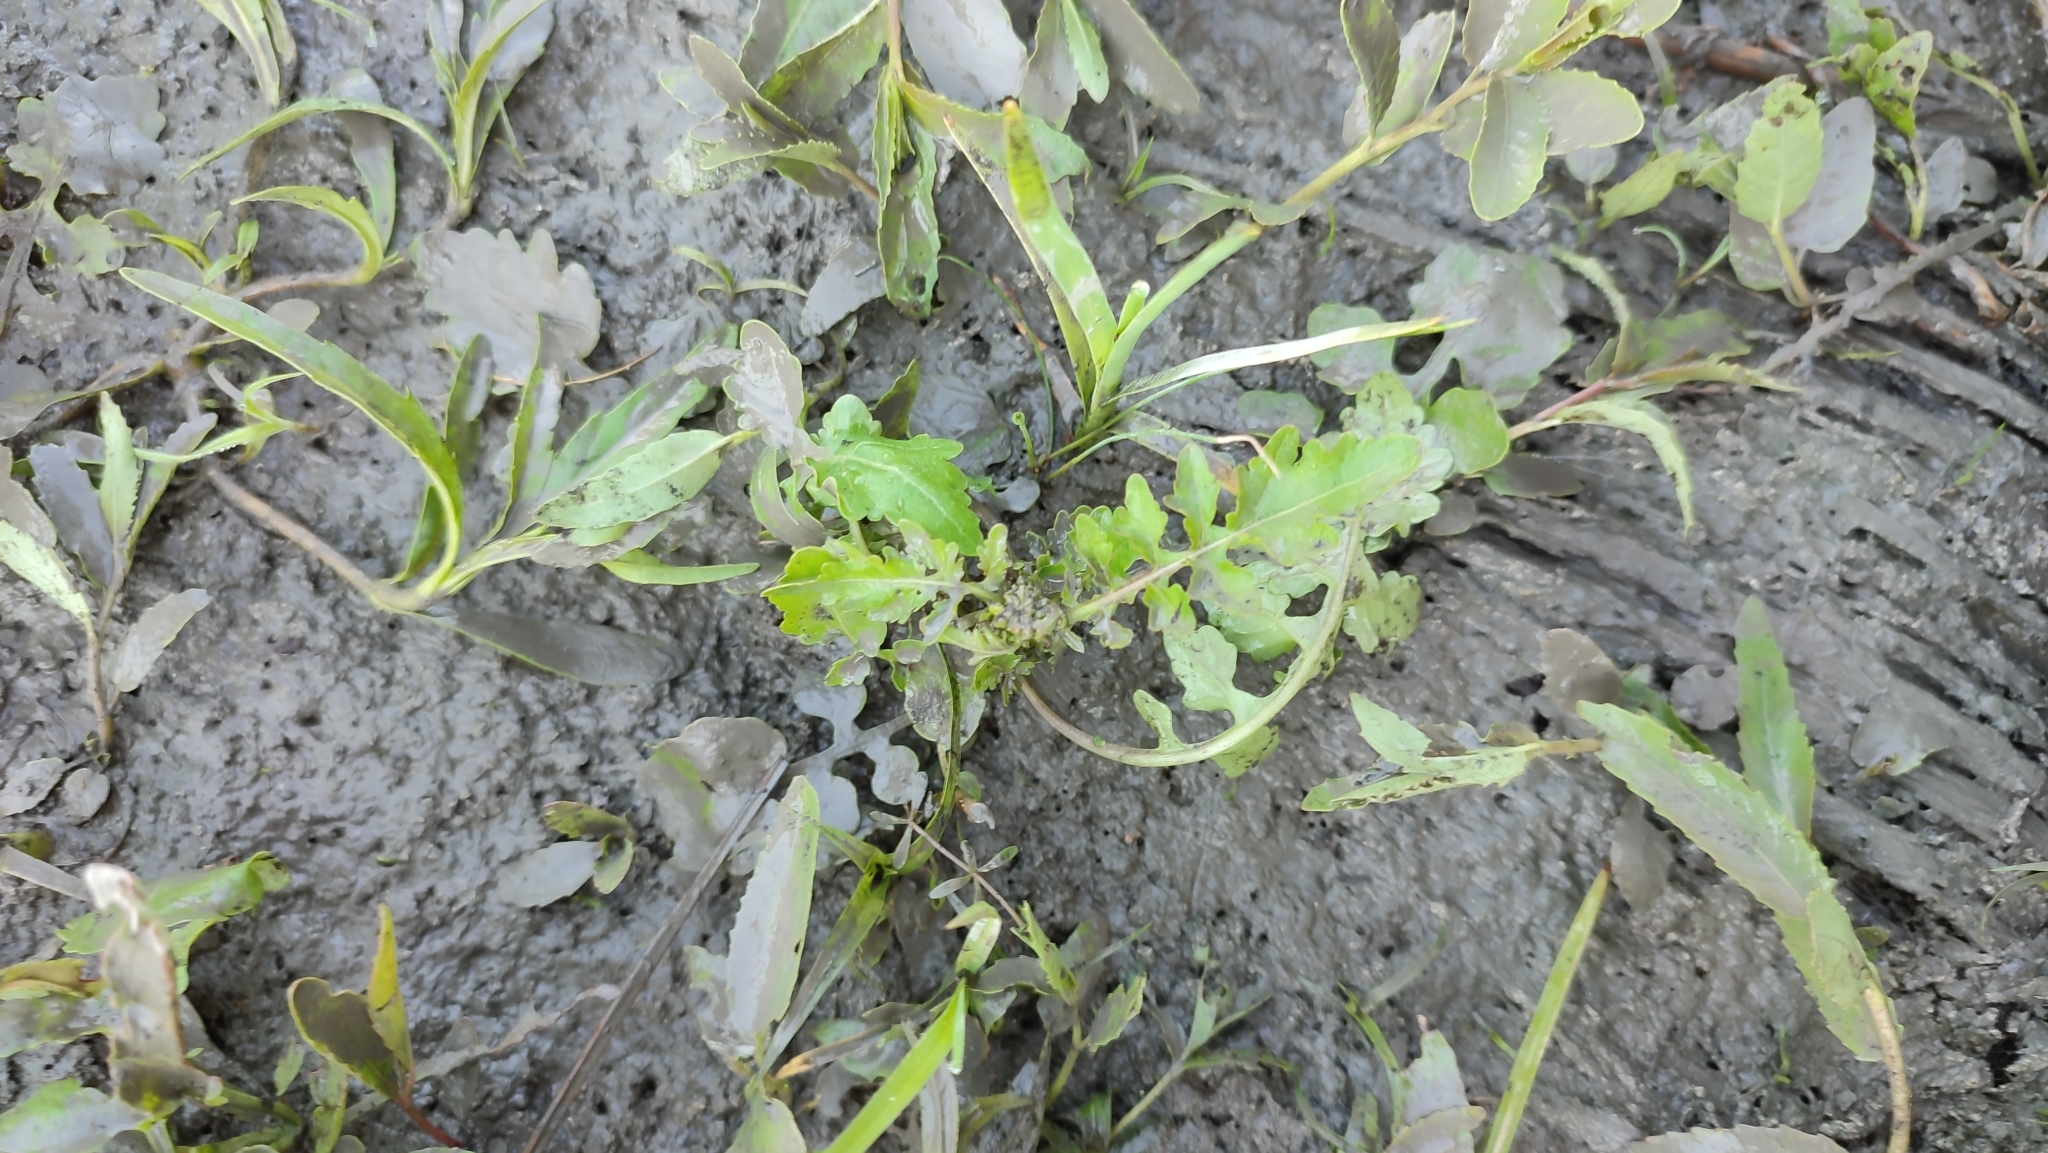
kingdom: Plantae
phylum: Tracheophyta
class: Magnoliopsida
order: Brassicales
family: Brassicaceae
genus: Rorippa
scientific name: Rorippa palustris
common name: Marsh yellow-cress
